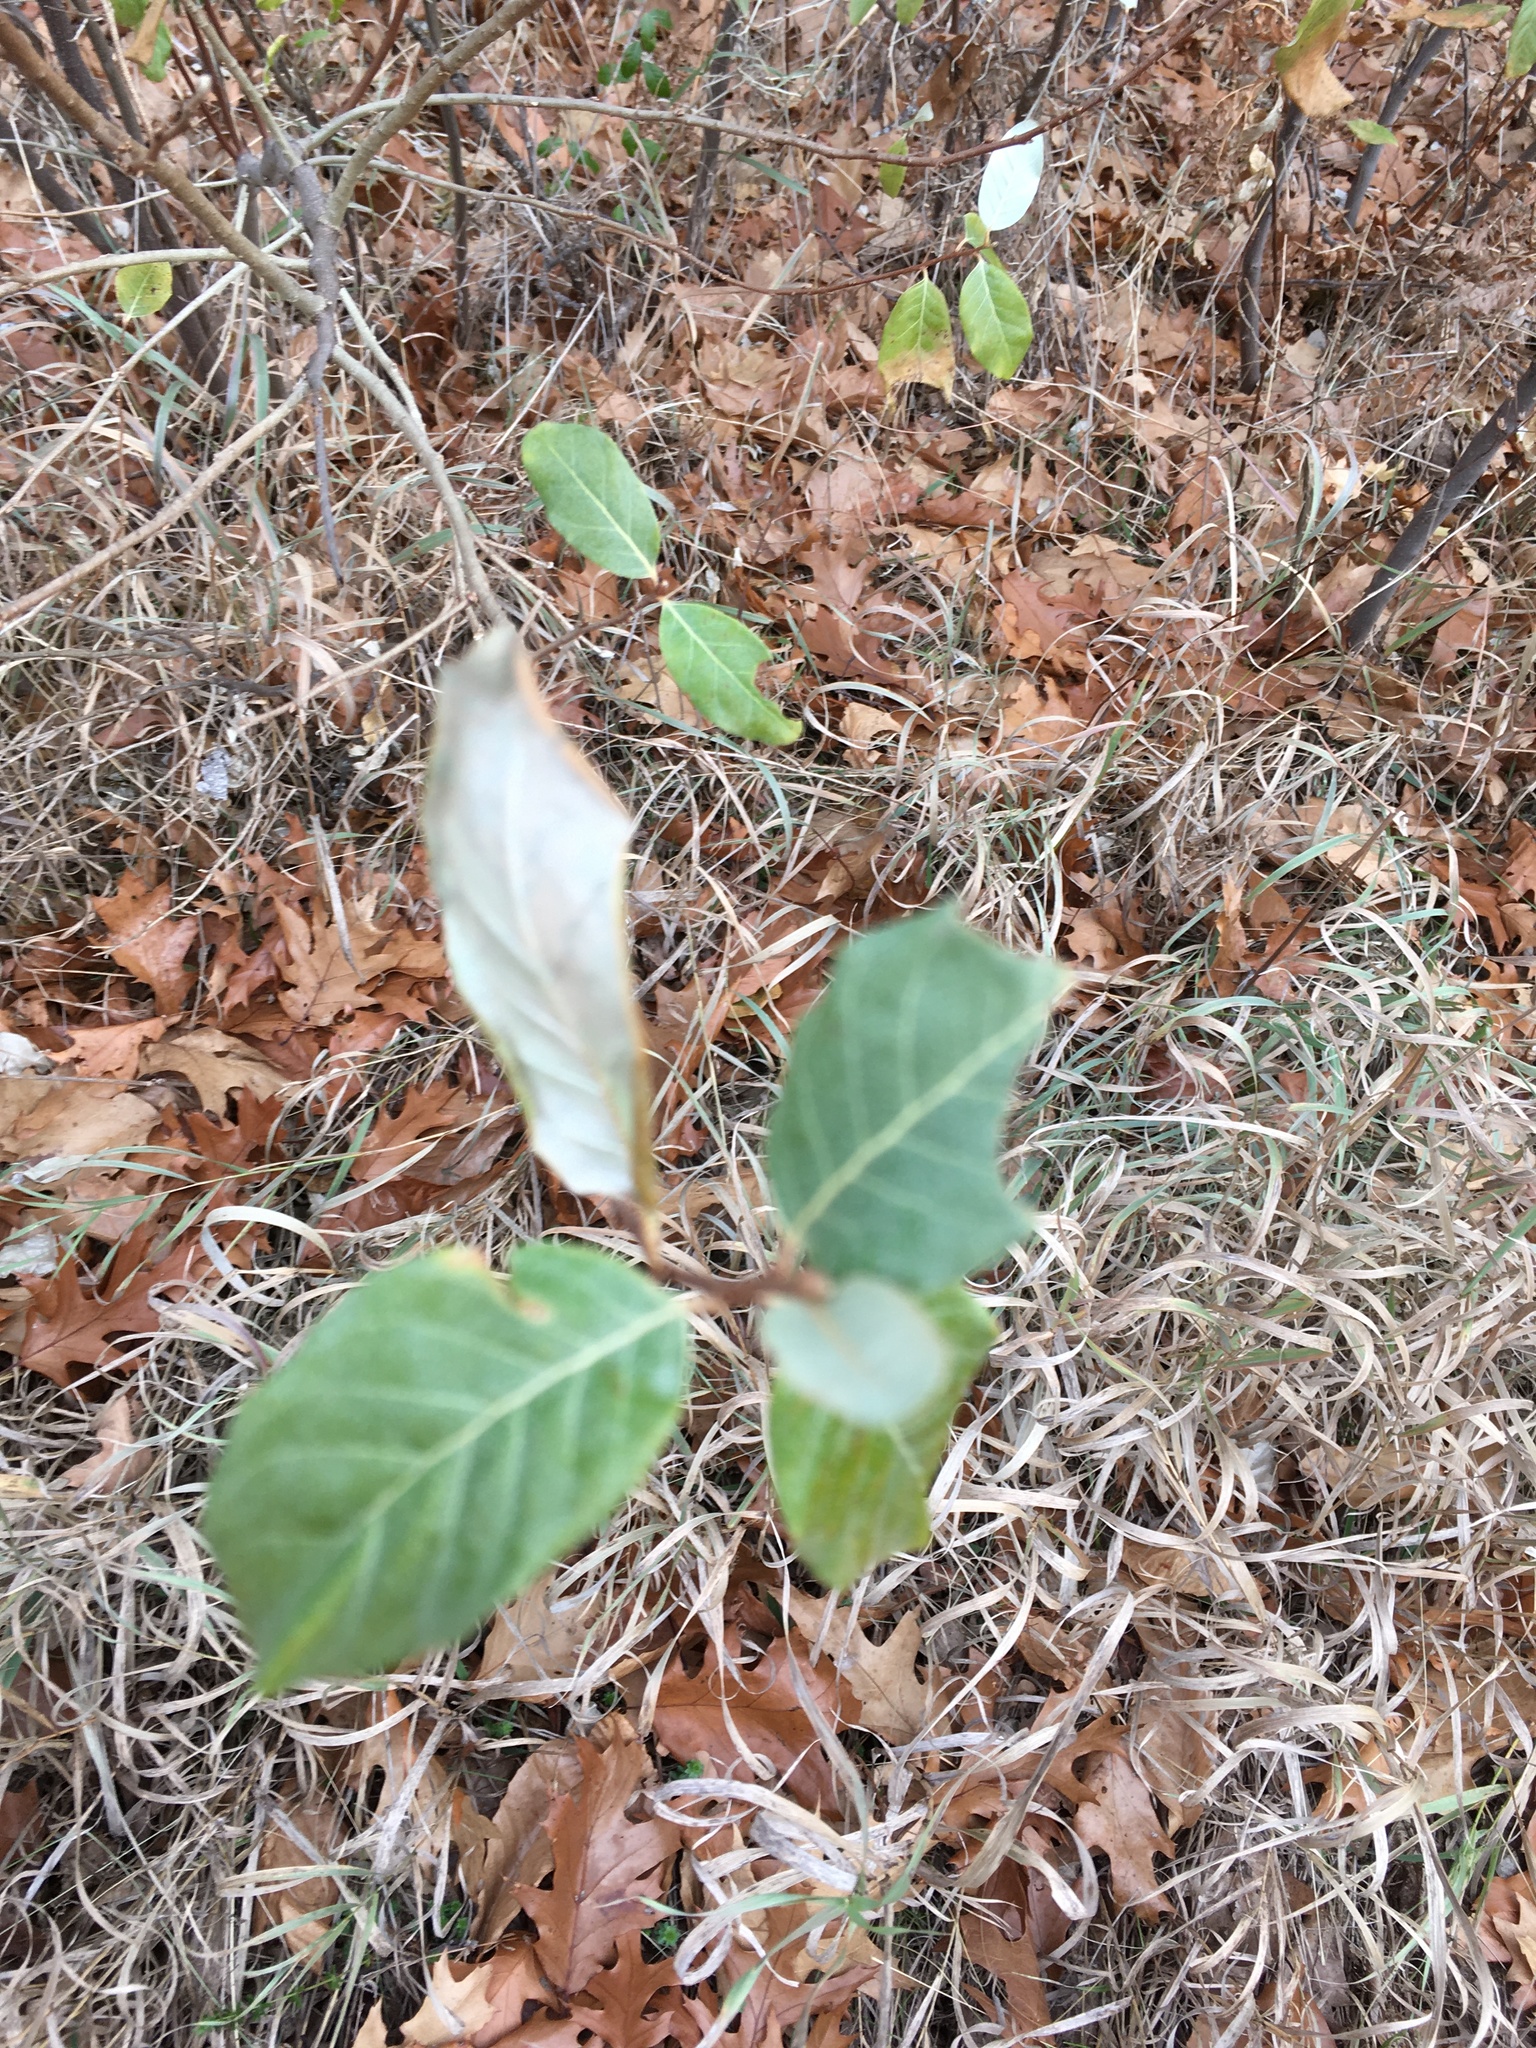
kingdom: Plantae
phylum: Tracheophyta
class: Magnoliopsida
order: Rosales
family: Elaeagnaceae
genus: Elaeagnus
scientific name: Elaeagnus umbellata
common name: Autumn olive
